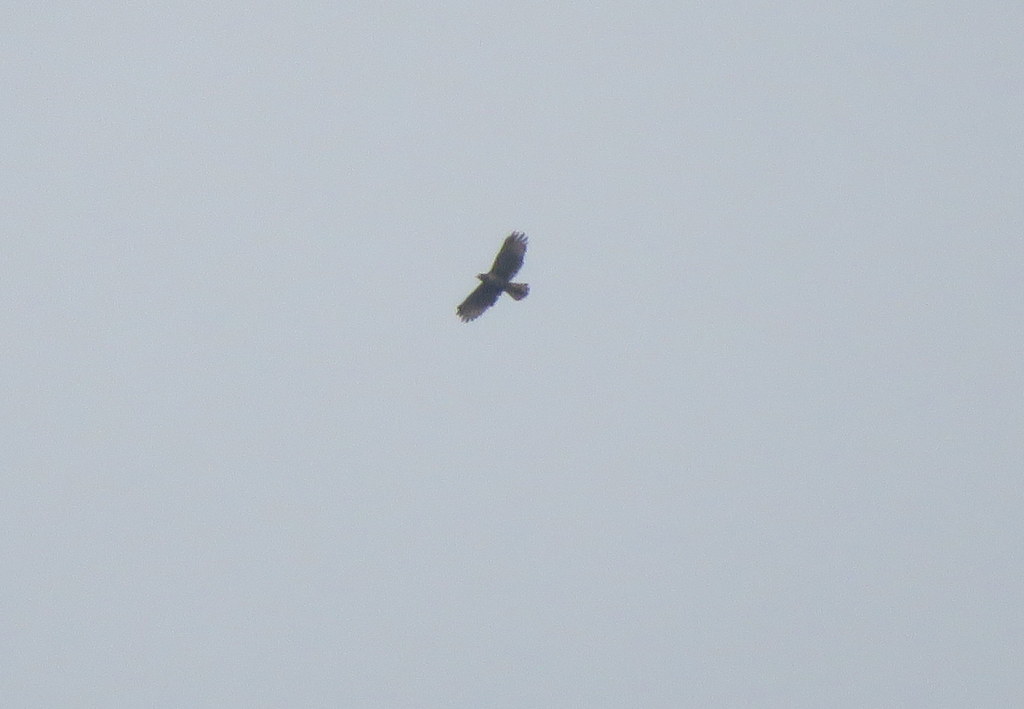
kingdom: Animalia
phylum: Chordata
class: Aves
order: Accipitriformes
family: Accipitridae
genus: Rupornis
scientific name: Rupornis magnirostris
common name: Roadside hawk
